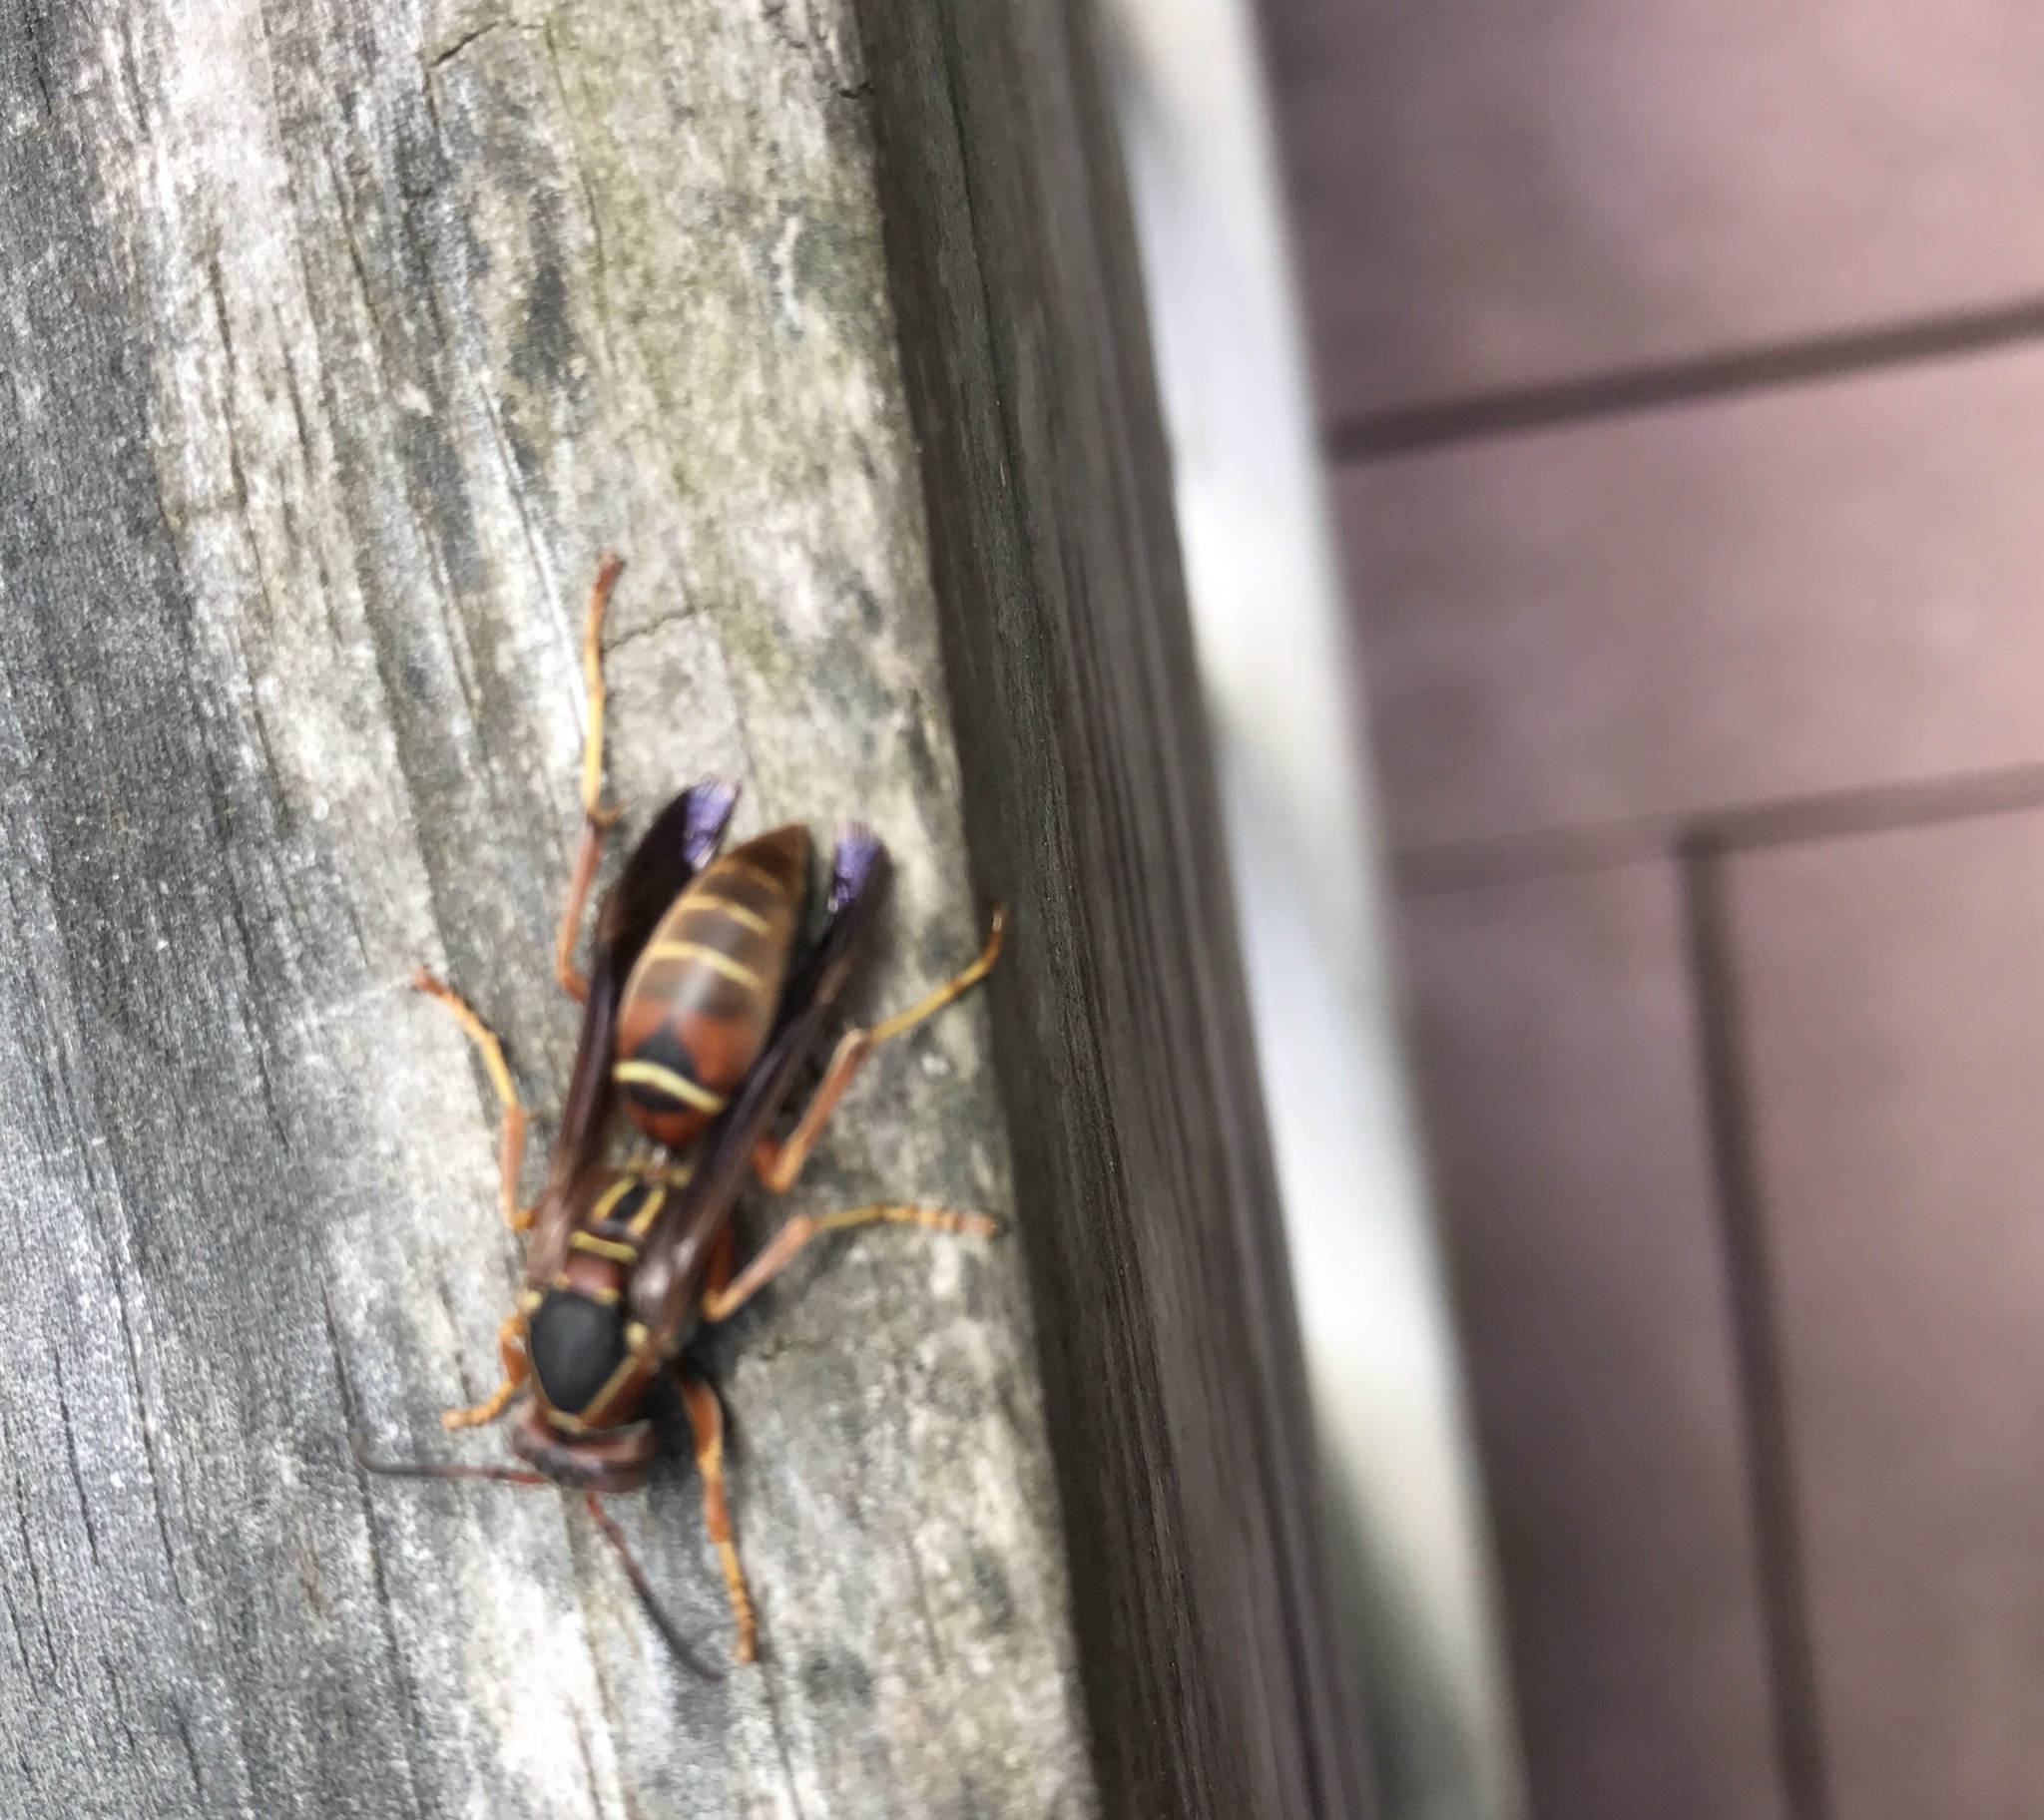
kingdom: Animalia
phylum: Arthropoda
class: Insecta
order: Hymenoptera
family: Eumenidae
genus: Polistes
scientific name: Polistes fuscatus
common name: Dark paper wasp
